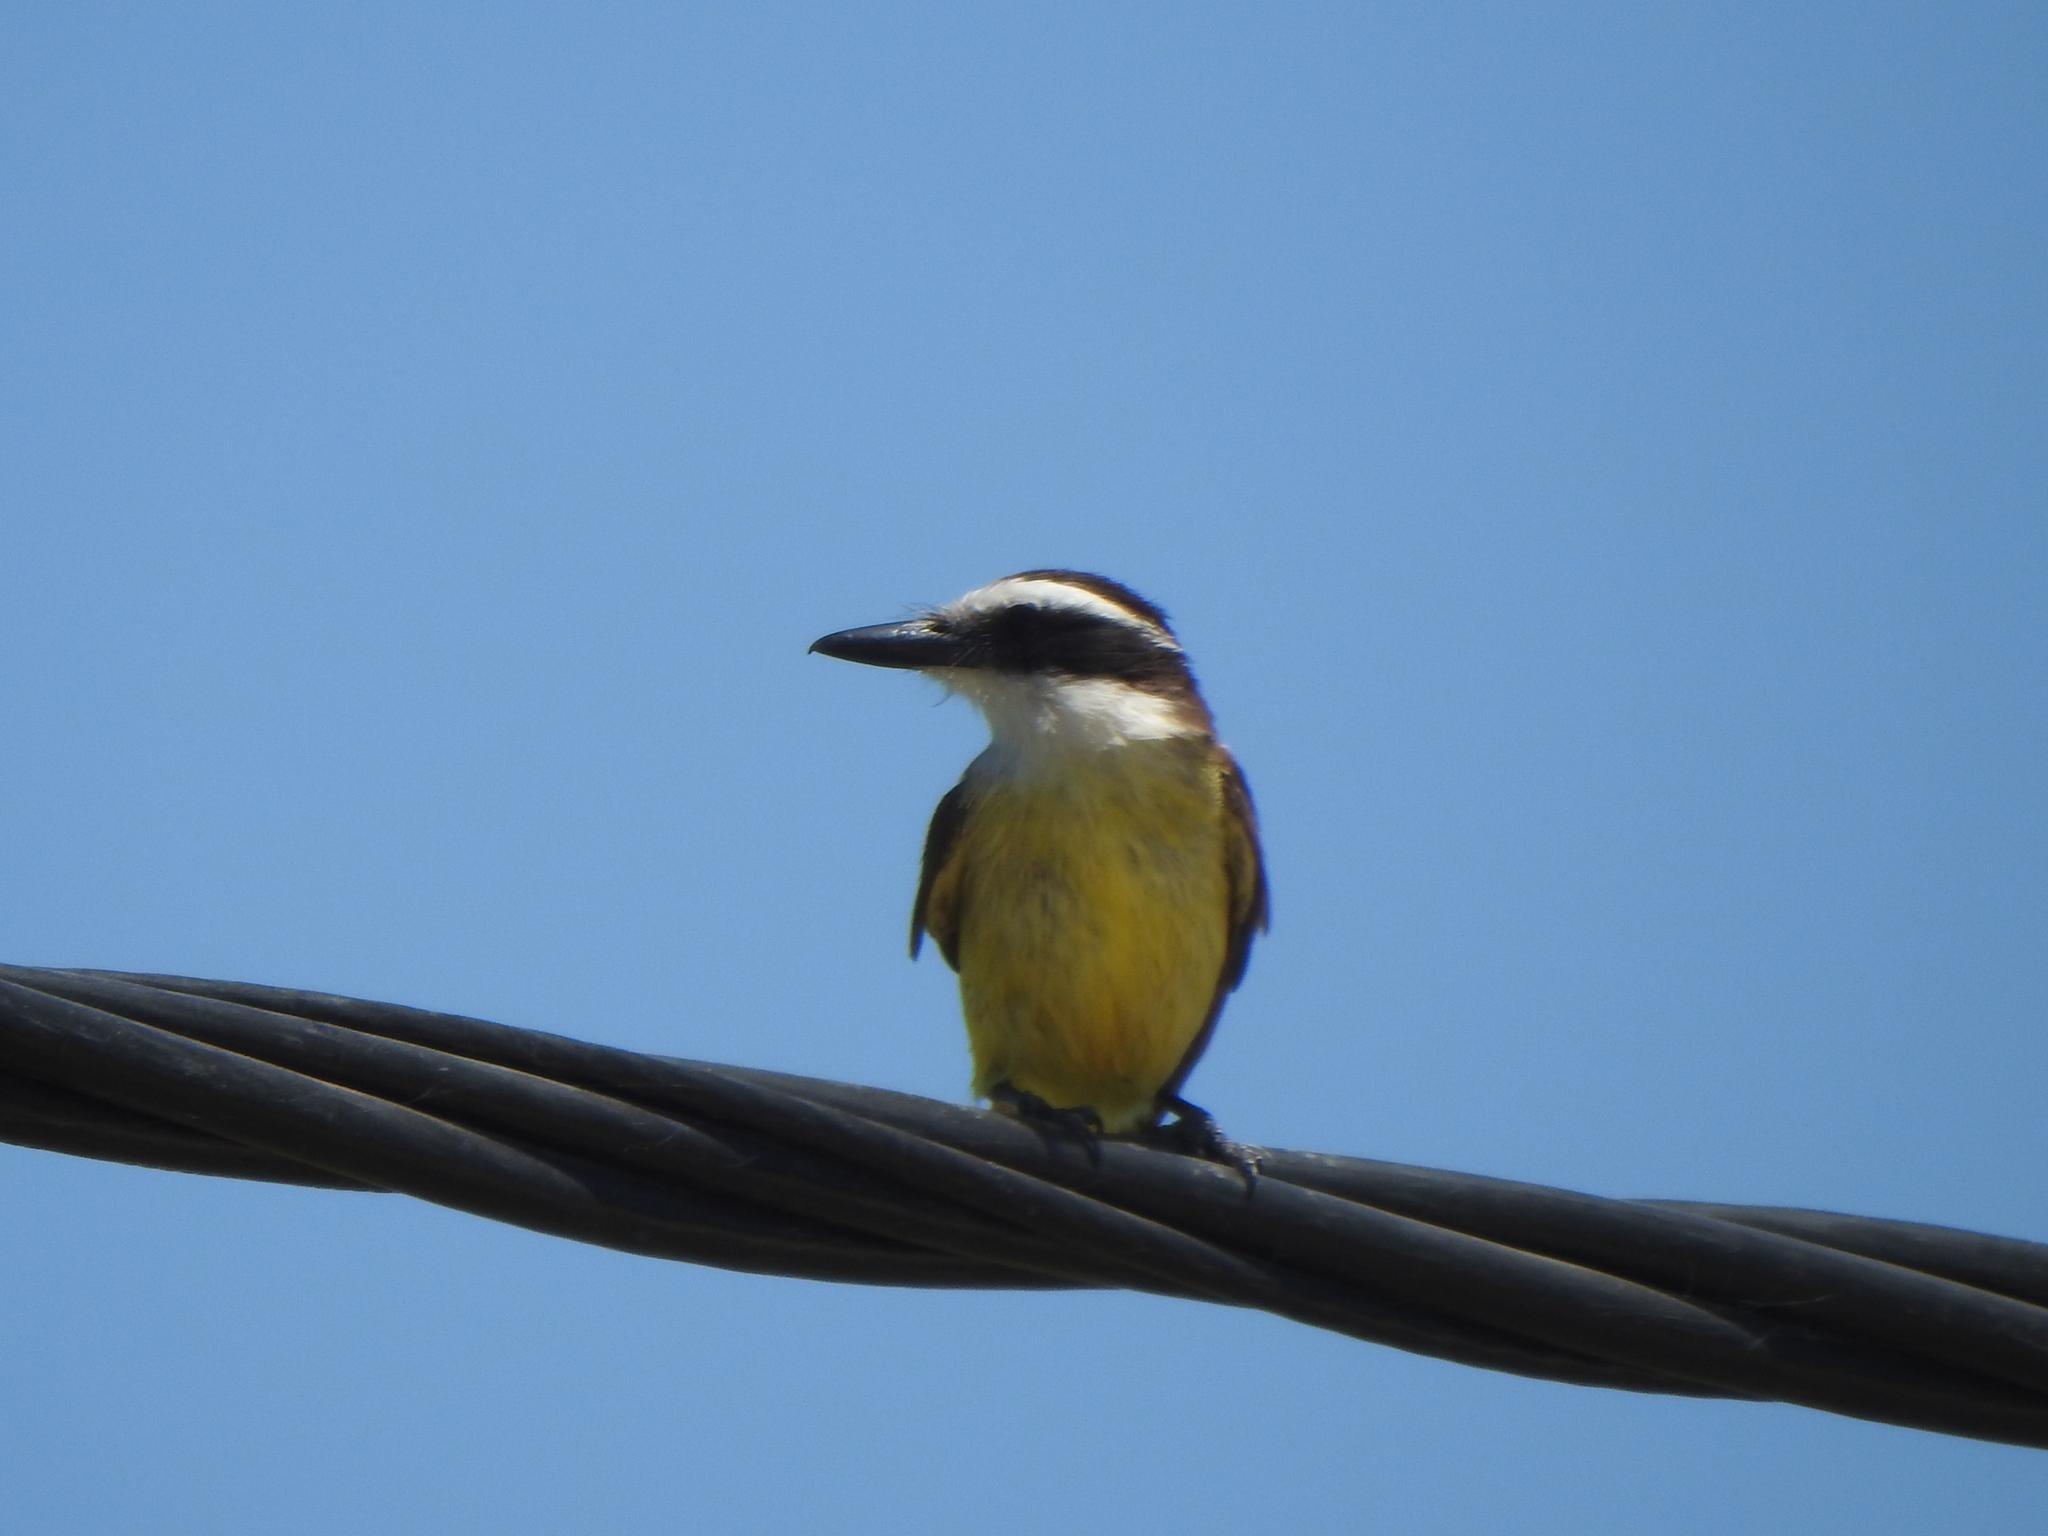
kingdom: Animalia
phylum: Chordata
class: Aves
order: Passeriformes
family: Tyrannidae
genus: Pitangus
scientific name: Pitangus sulphuratus
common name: Great kiskadee
